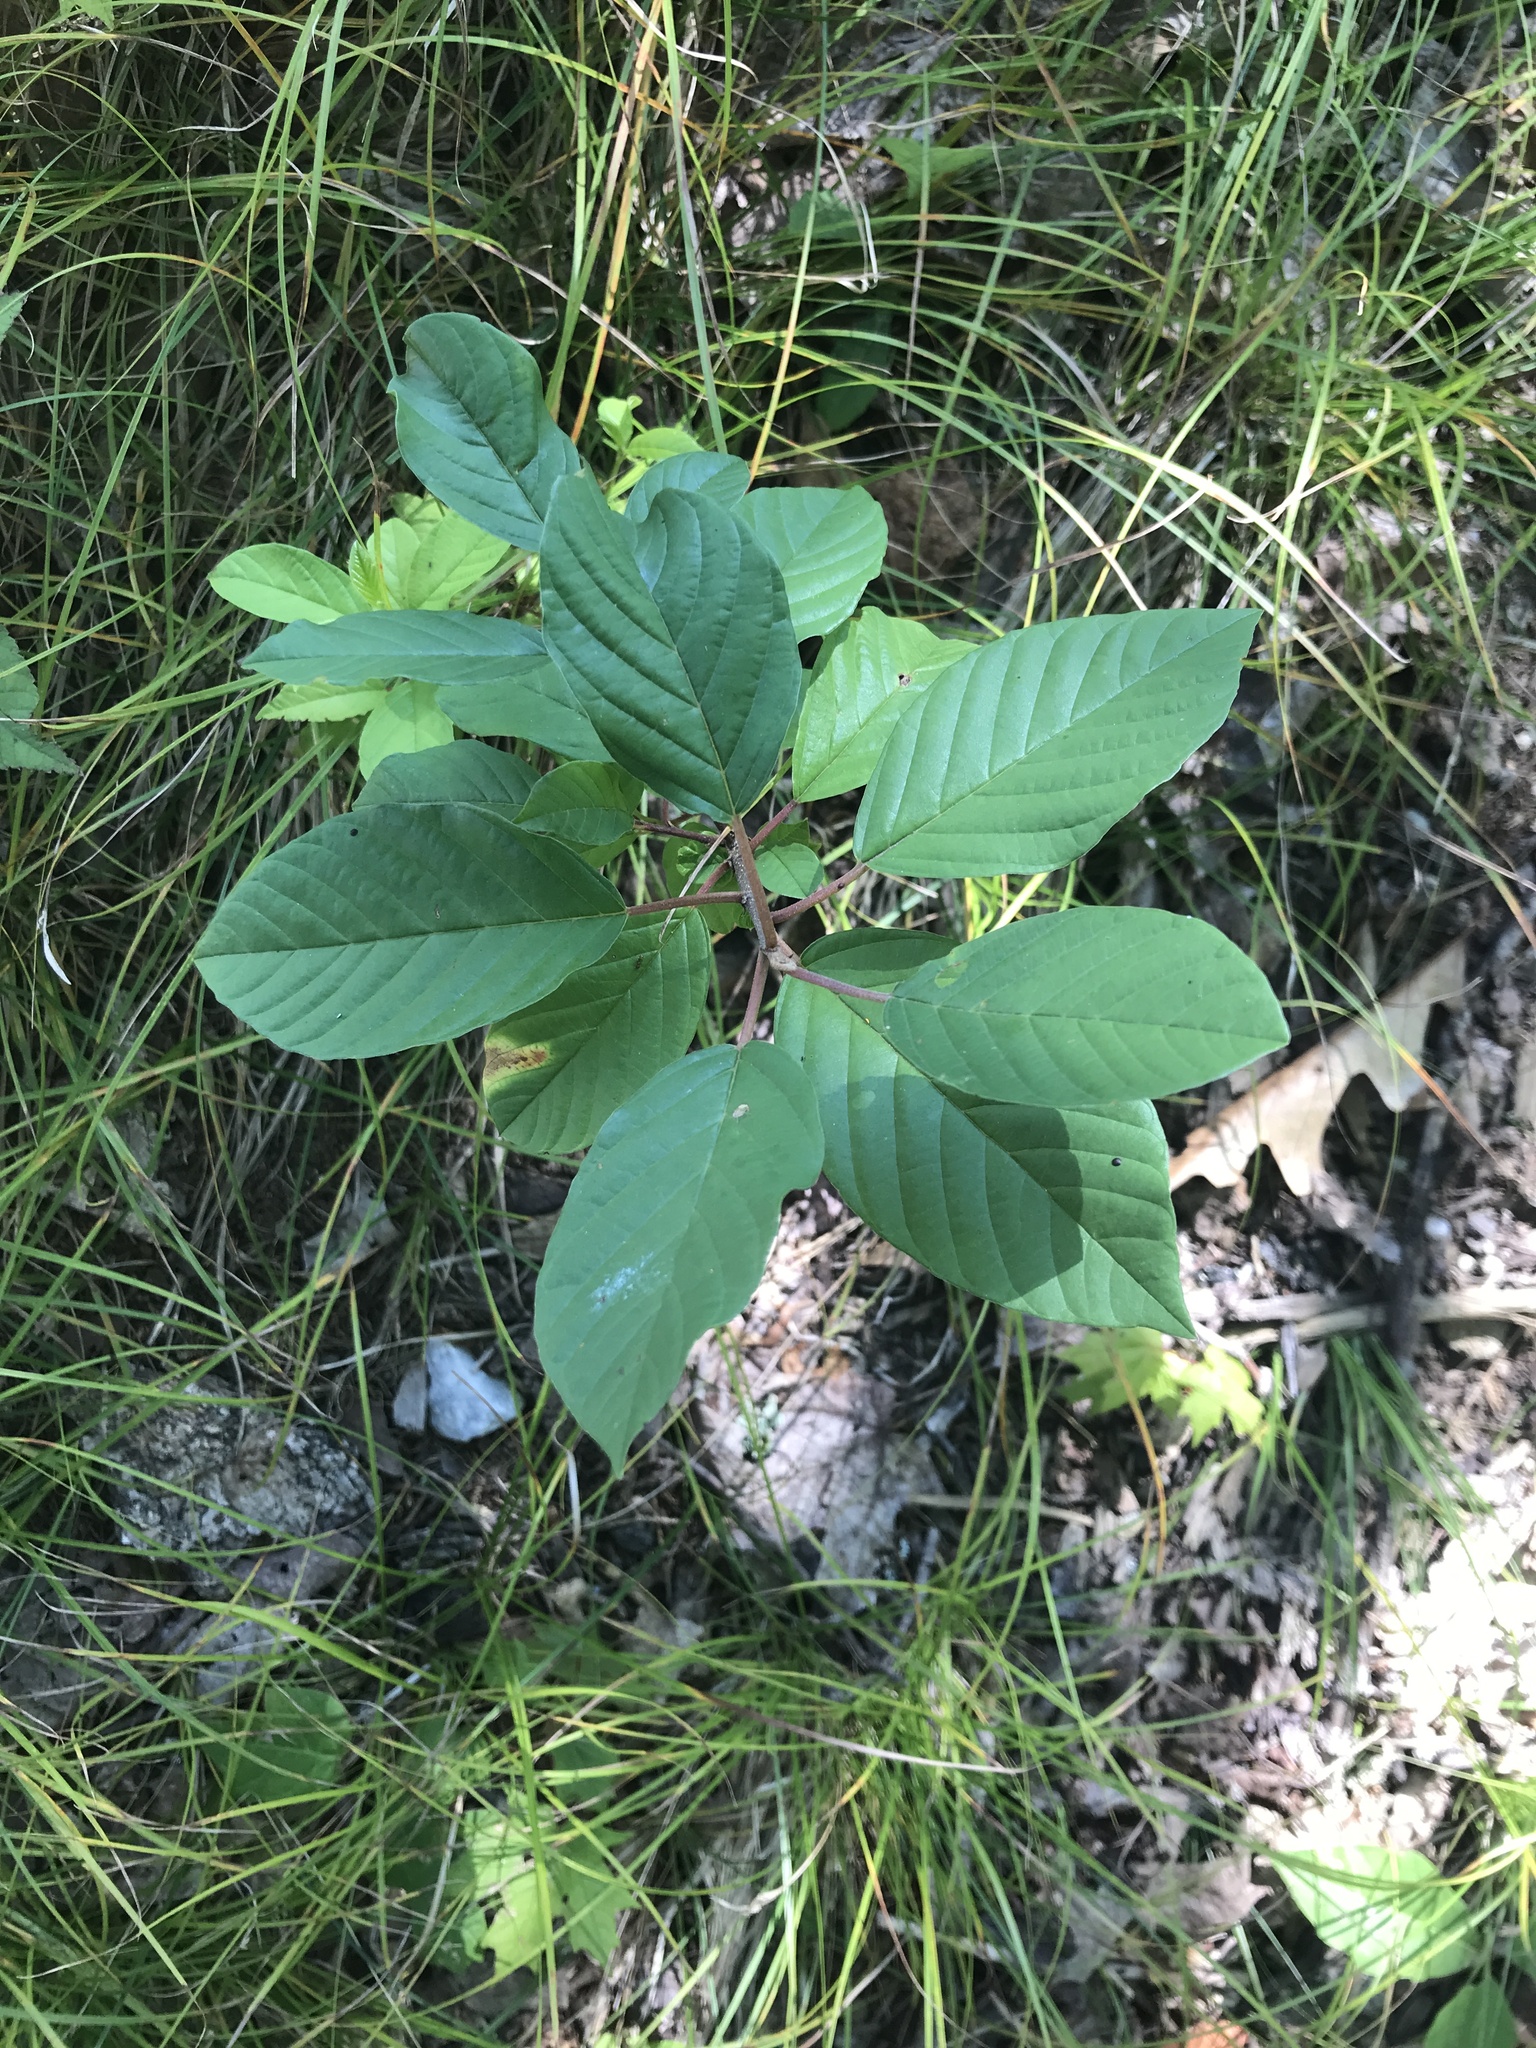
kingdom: Plantae
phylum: Tracheophyta
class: Magnoliopsida
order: Rosales
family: Rhamnaceae
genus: Frangula
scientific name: Frangula alnus
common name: Alder buckthorn
